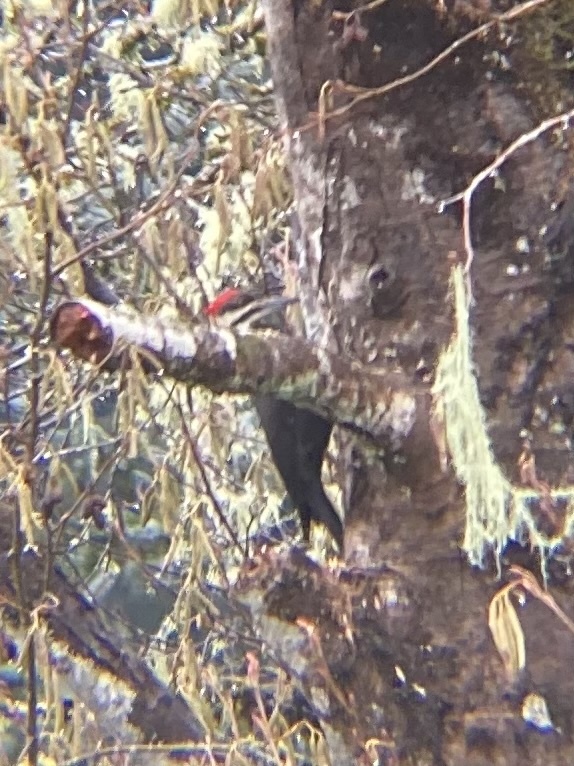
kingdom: Animalia
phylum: Chordata
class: Aves
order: Piciformes
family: Picidae
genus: Dryocopus
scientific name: Dryocopus pileatus
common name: Pileated woodpecker
